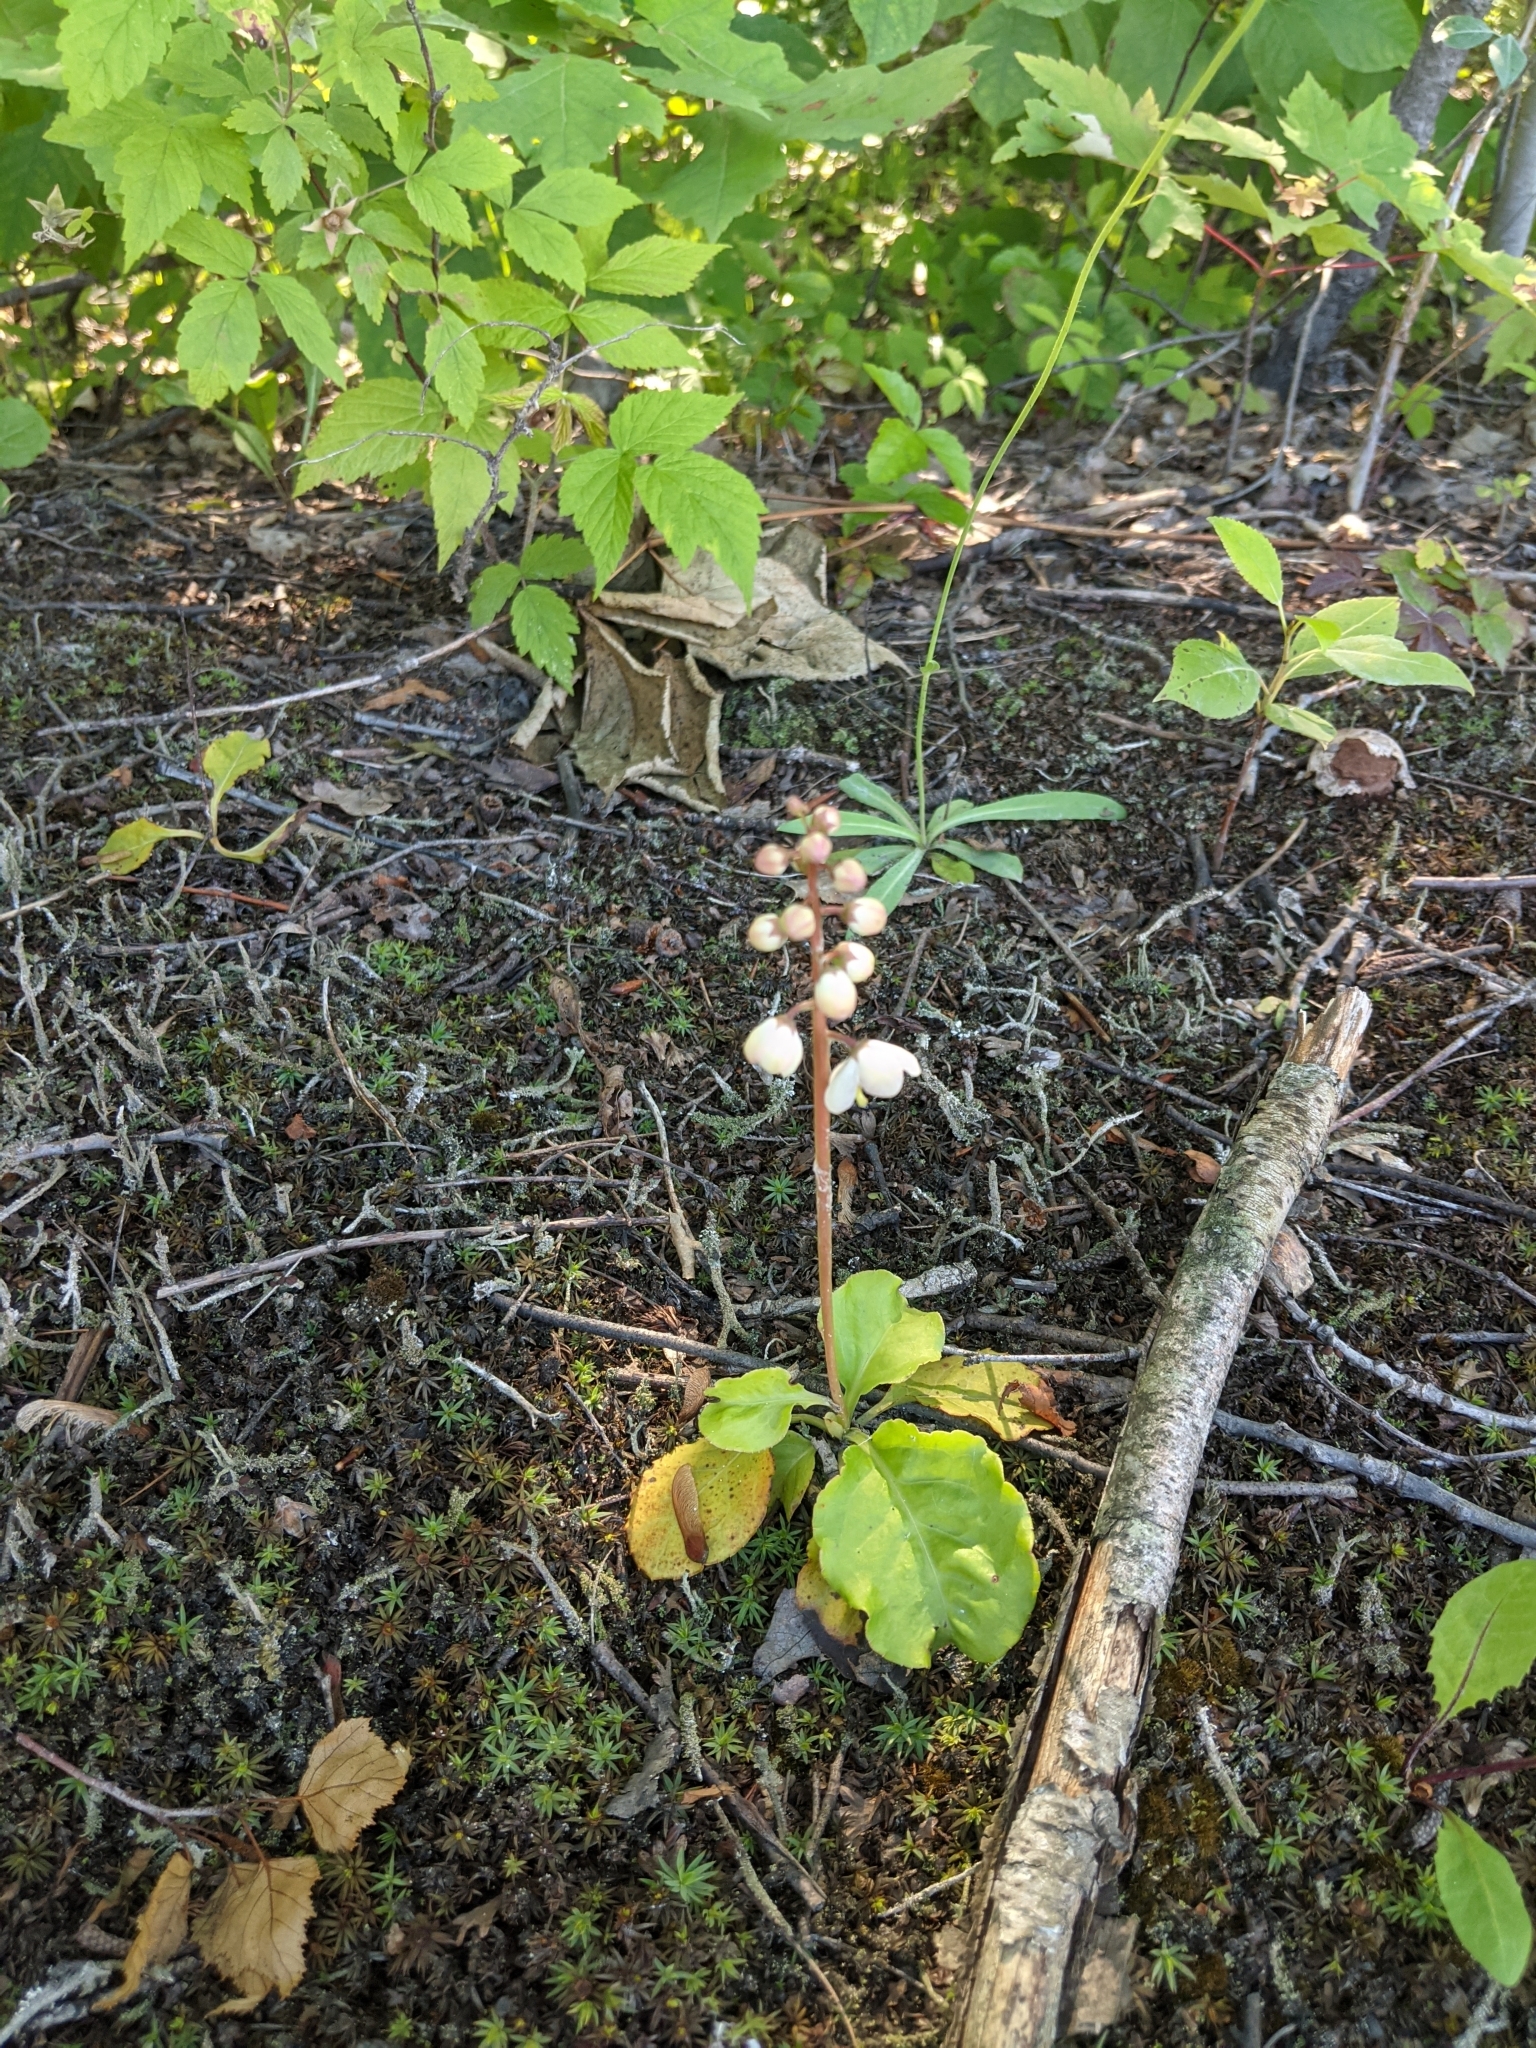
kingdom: Plantae
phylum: Tracheophyta
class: Magnoliopsida
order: Ericales
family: Ericaceae
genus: Pyrola
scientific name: Pyrola elliptica
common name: Shinleaf
